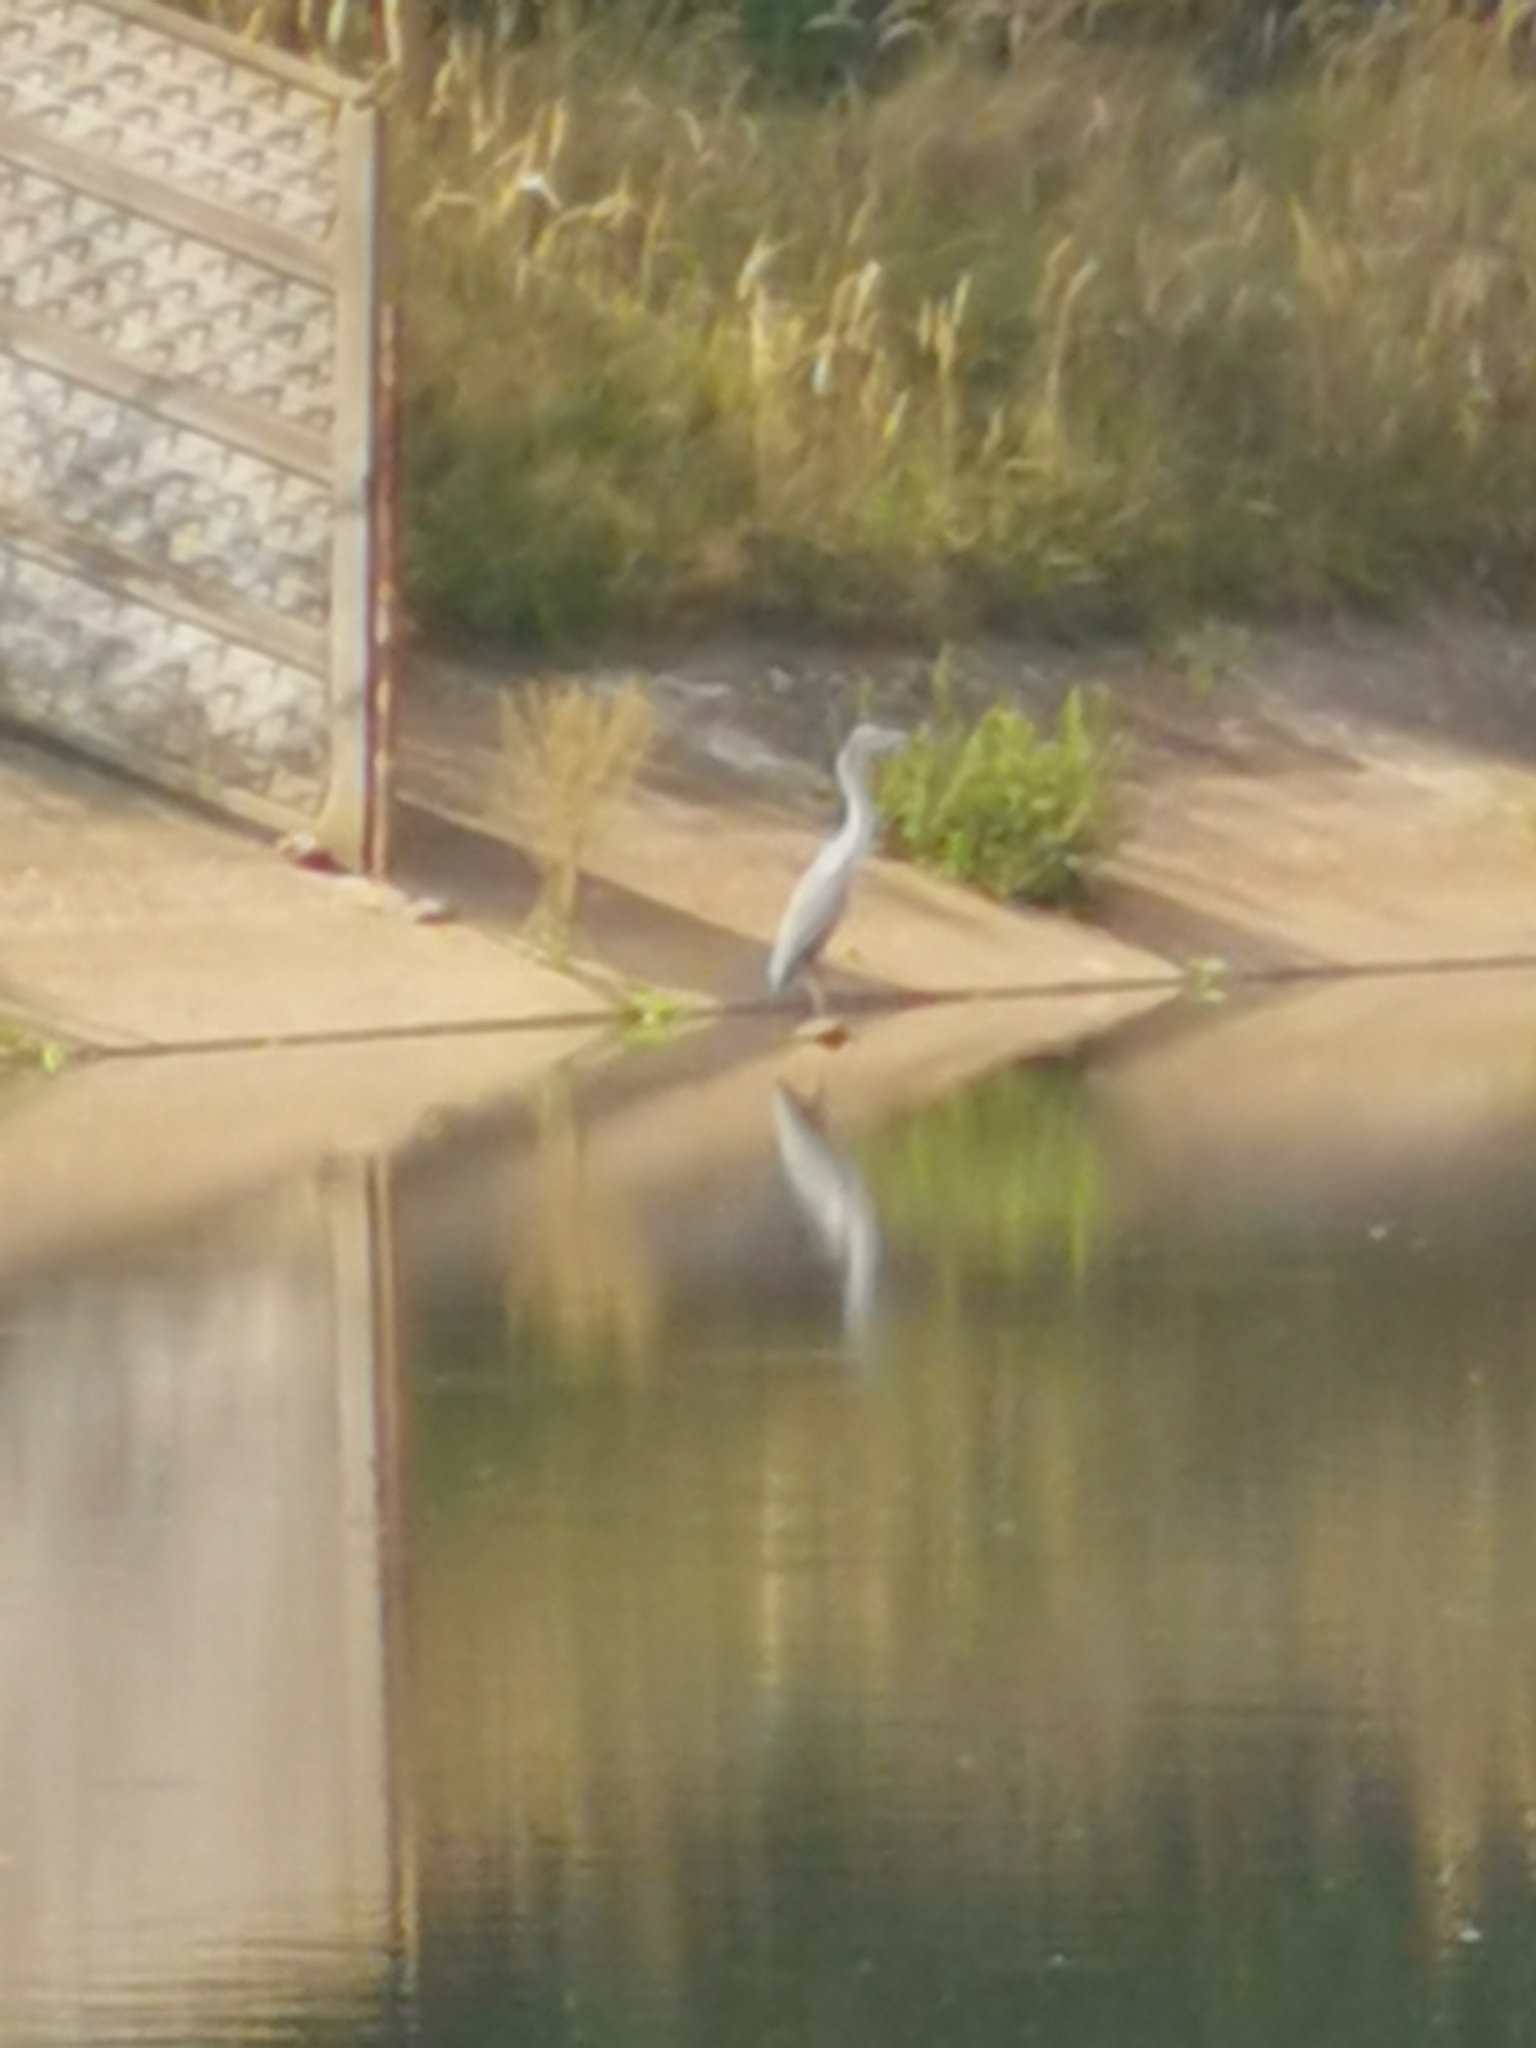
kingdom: Animalia
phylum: Chordata
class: Aves
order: Pelecaniformes
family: Ardeidae
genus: Ardea
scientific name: Ardea cinerea
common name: Grey heron
